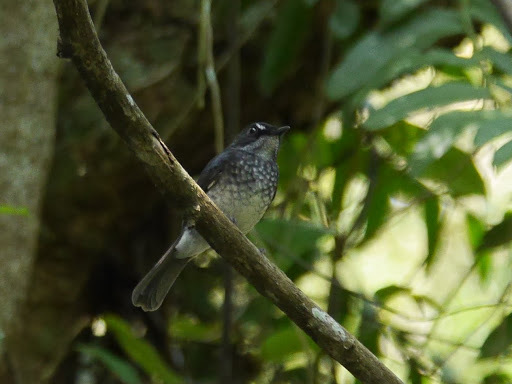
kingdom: Animalia
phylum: Chordata
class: Aves
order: Passeriformes
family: Muscicapidae
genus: Fraseria
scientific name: Fraseria cinerascens
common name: White-browed forest flycatcher
